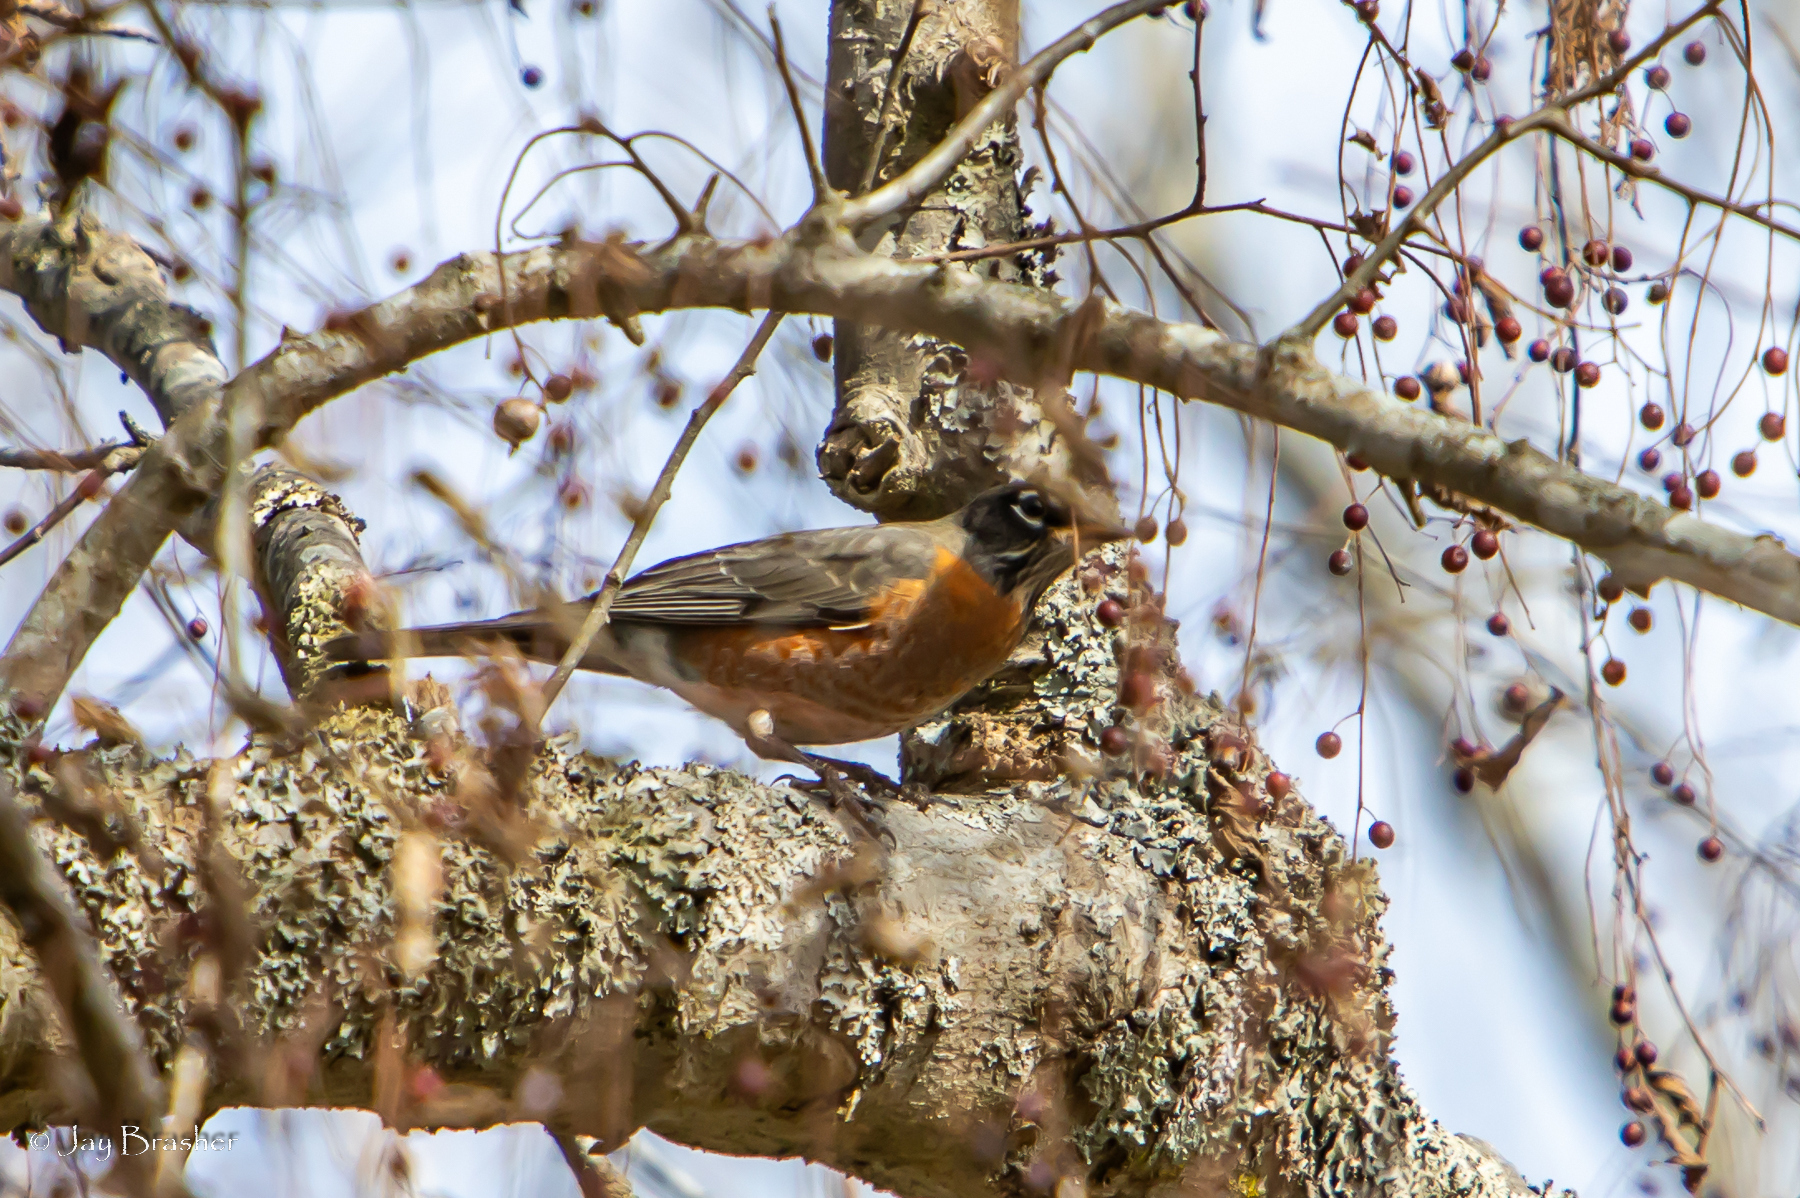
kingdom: Animalia
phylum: Chordata
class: Aves
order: Passeriformes
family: Turdidae
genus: Turdus
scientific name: Turdus migratorius
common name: American robin
